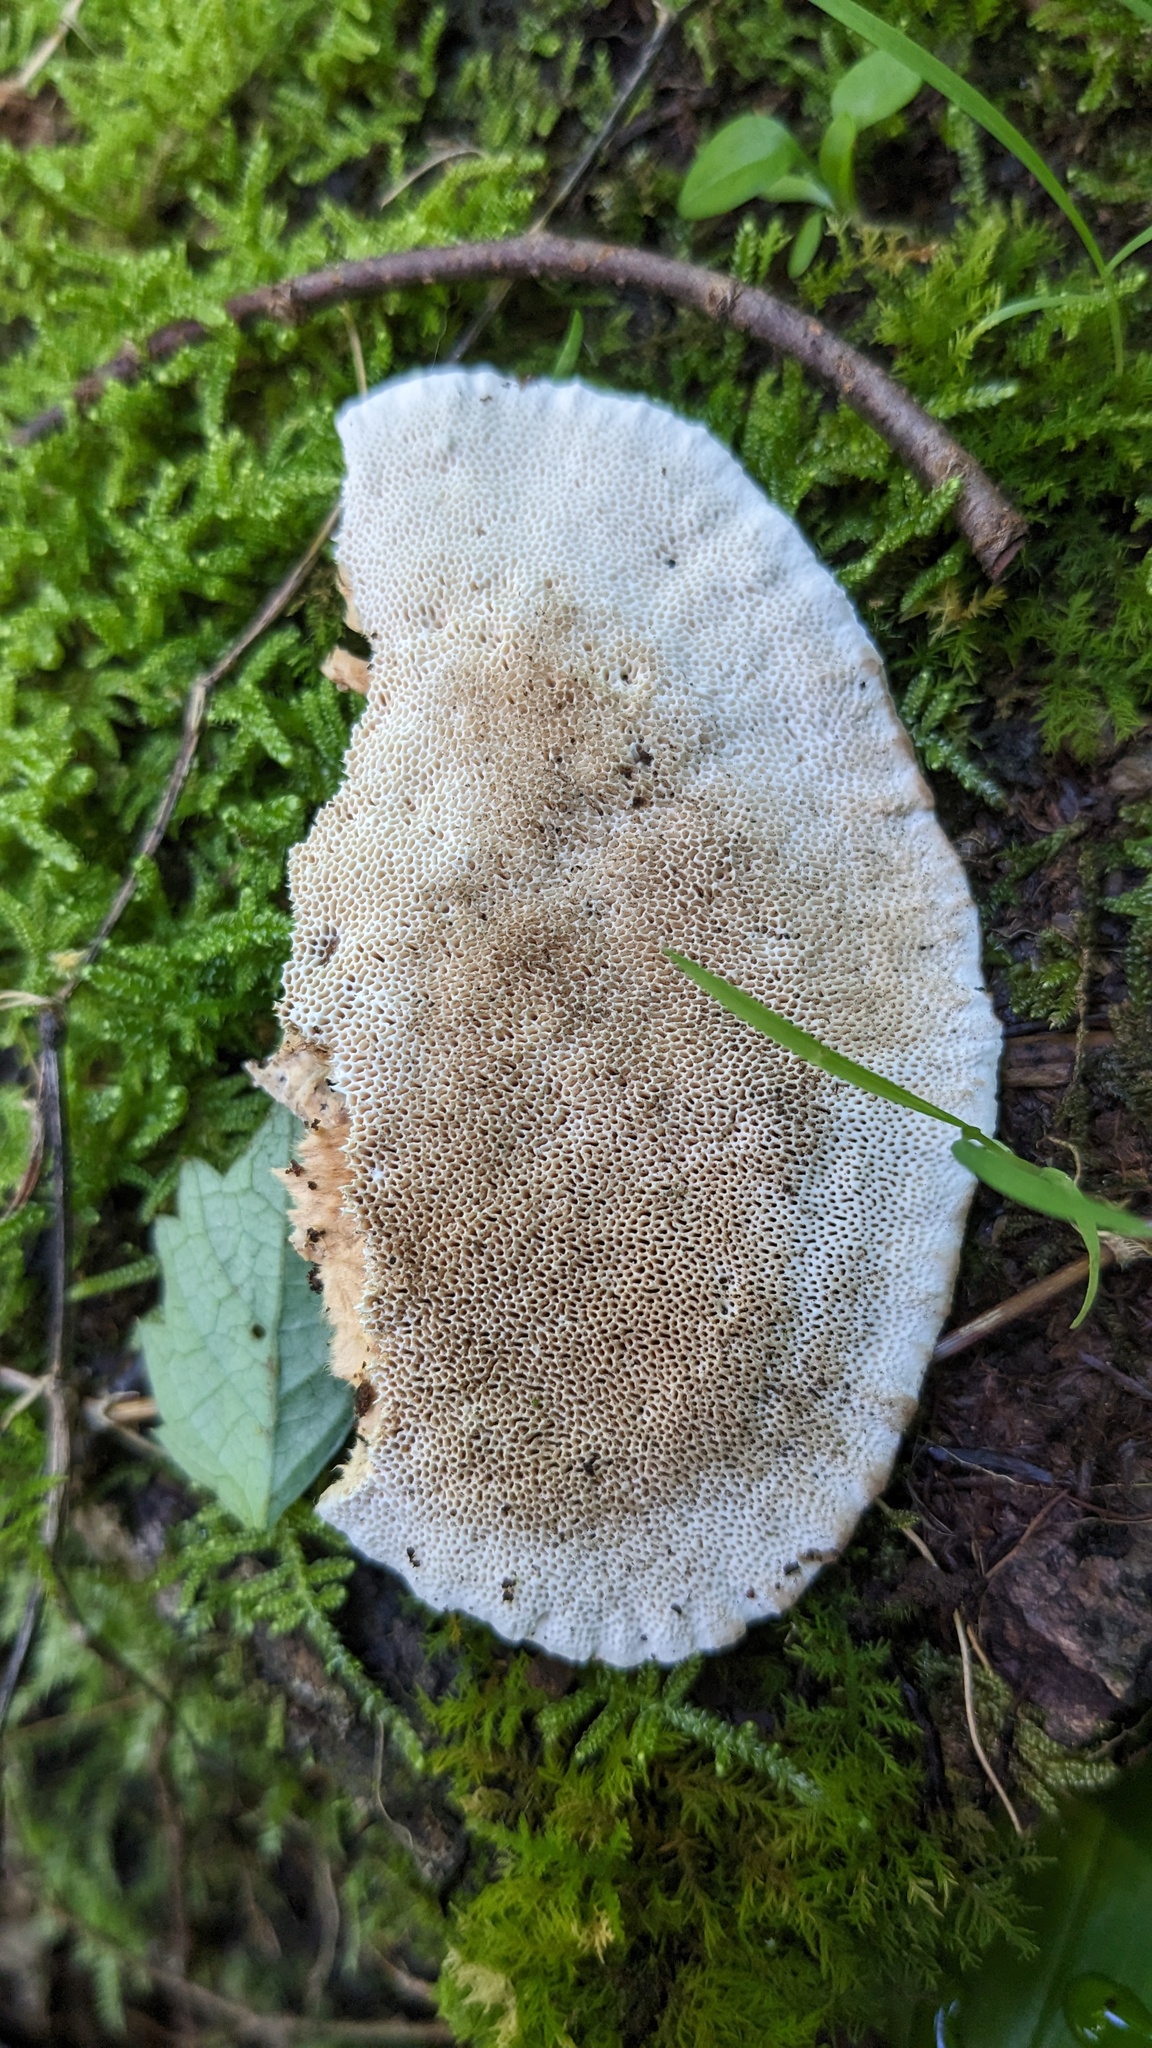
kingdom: Fungi
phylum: Basidiomycota
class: Agaricomycetes
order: Polyporales
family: Fomitopsidaceae
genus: Fomitopsis
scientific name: Fomitopsis
